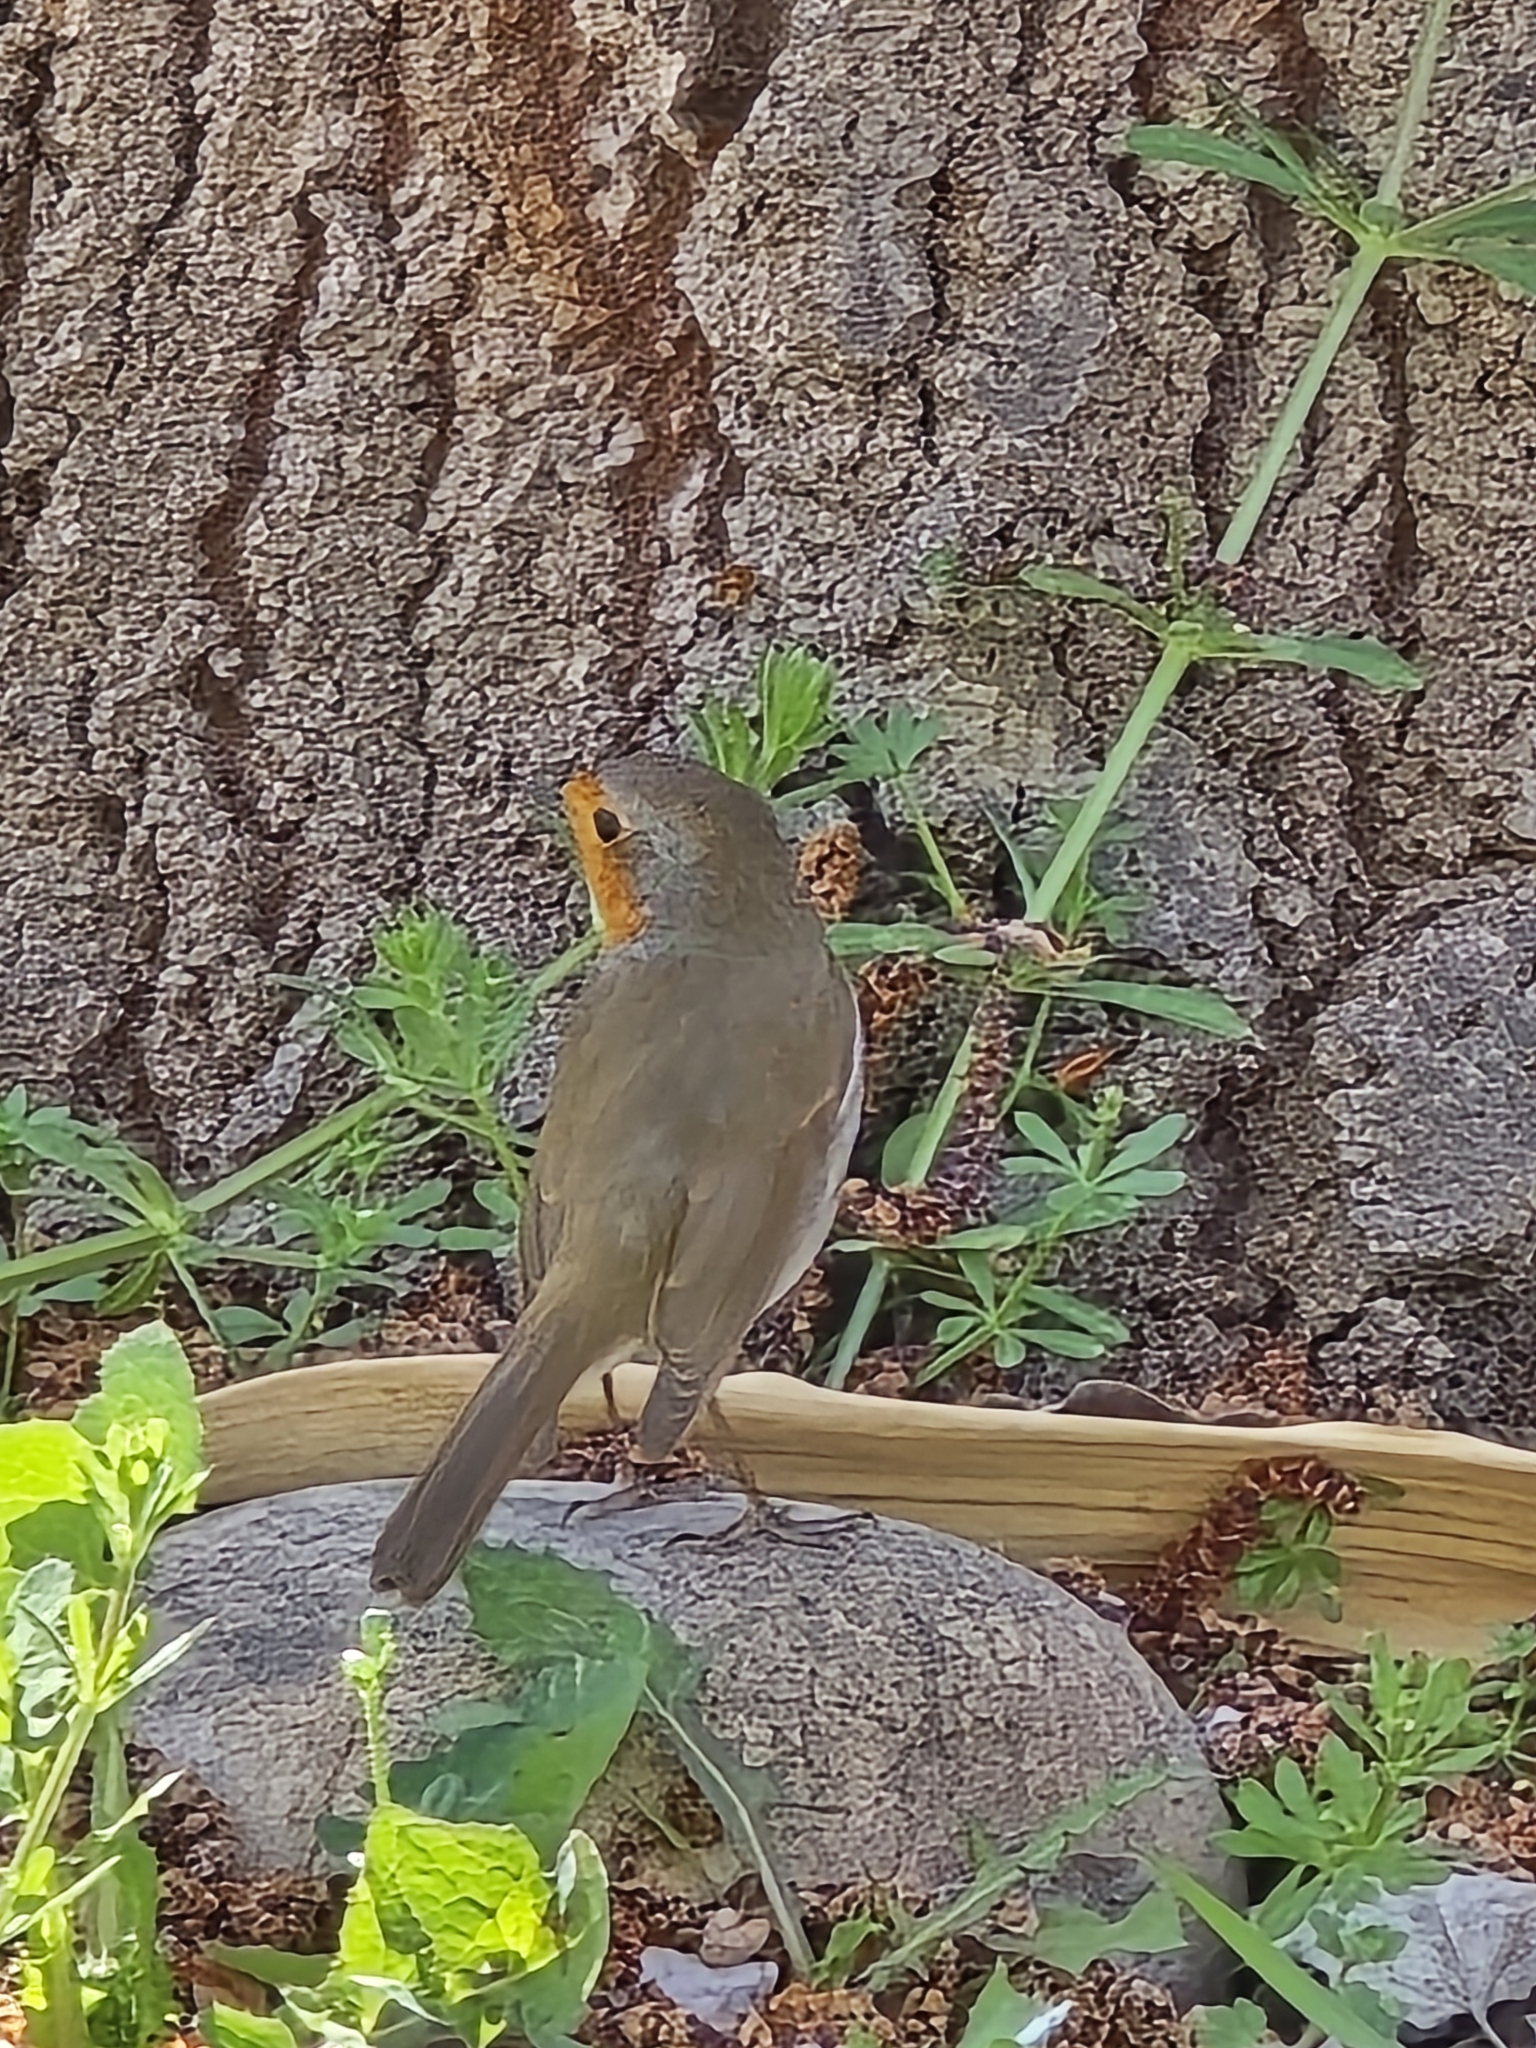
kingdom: Animalia
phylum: Chordata
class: Aves
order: Passeriformes
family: Muscicapidae
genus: Erithacus
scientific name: Erithacus rubecula
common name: European robin
